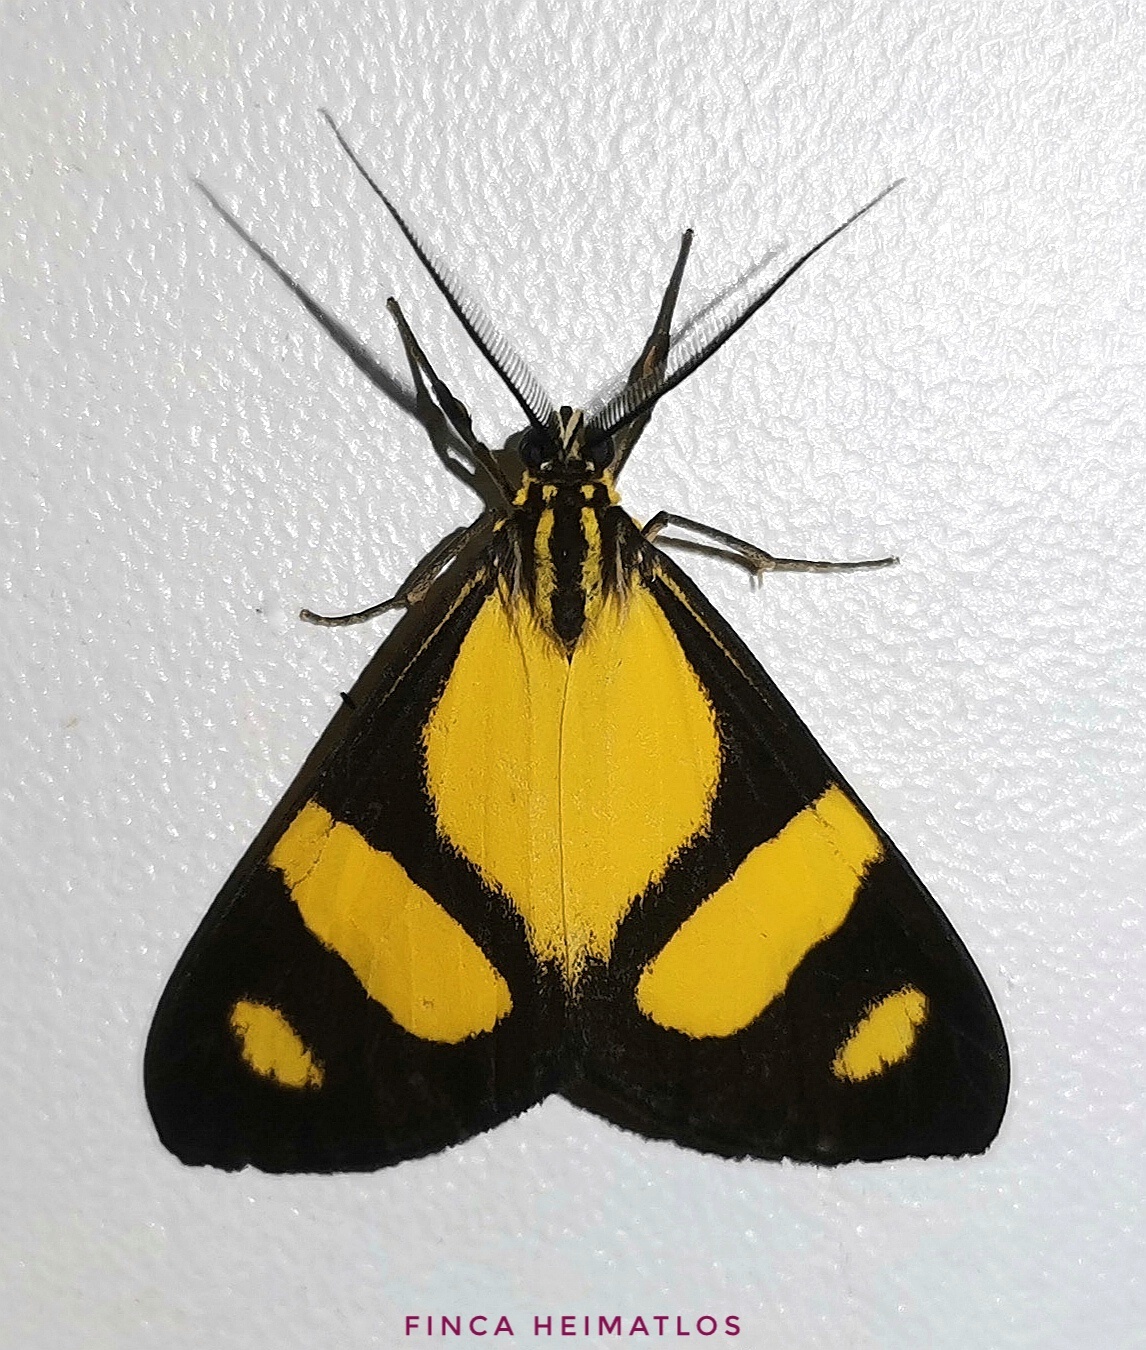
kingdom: Animalia
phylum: Arthropoda
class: Insecta
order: Lepidoptera
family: Notodontidae
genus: Phaeochlaena
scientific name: Phaeochlaena solilucis
